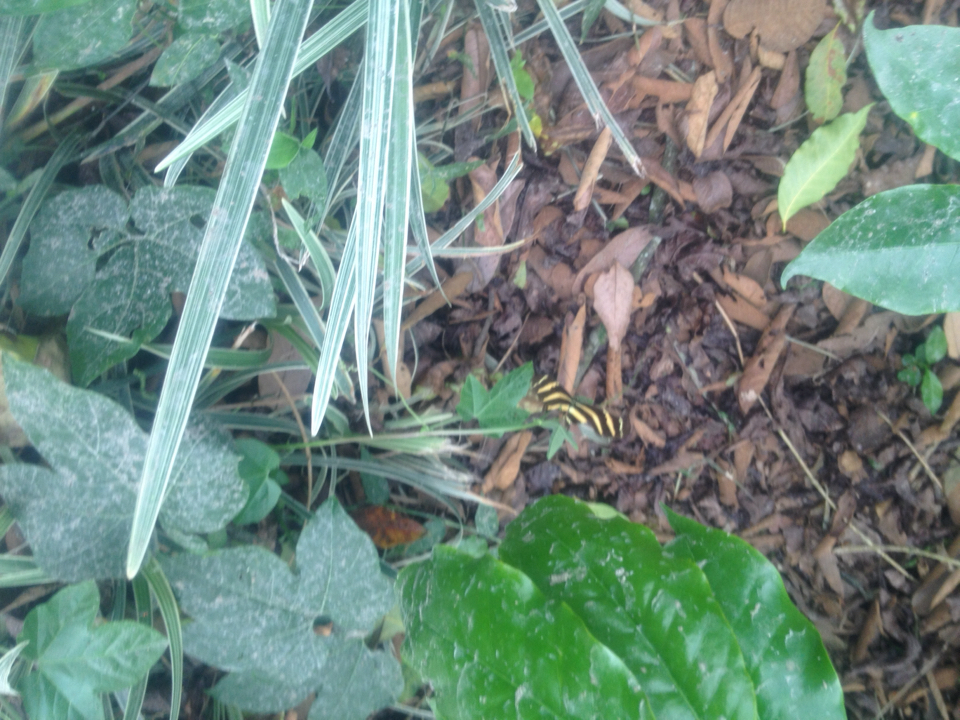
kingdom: Animalia
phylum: Arthropoda
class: Insecta
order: Lepidoptera
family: Nymphalidae
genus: Heliconius
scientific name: Heliconius charithonia
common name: Zebra long wing
